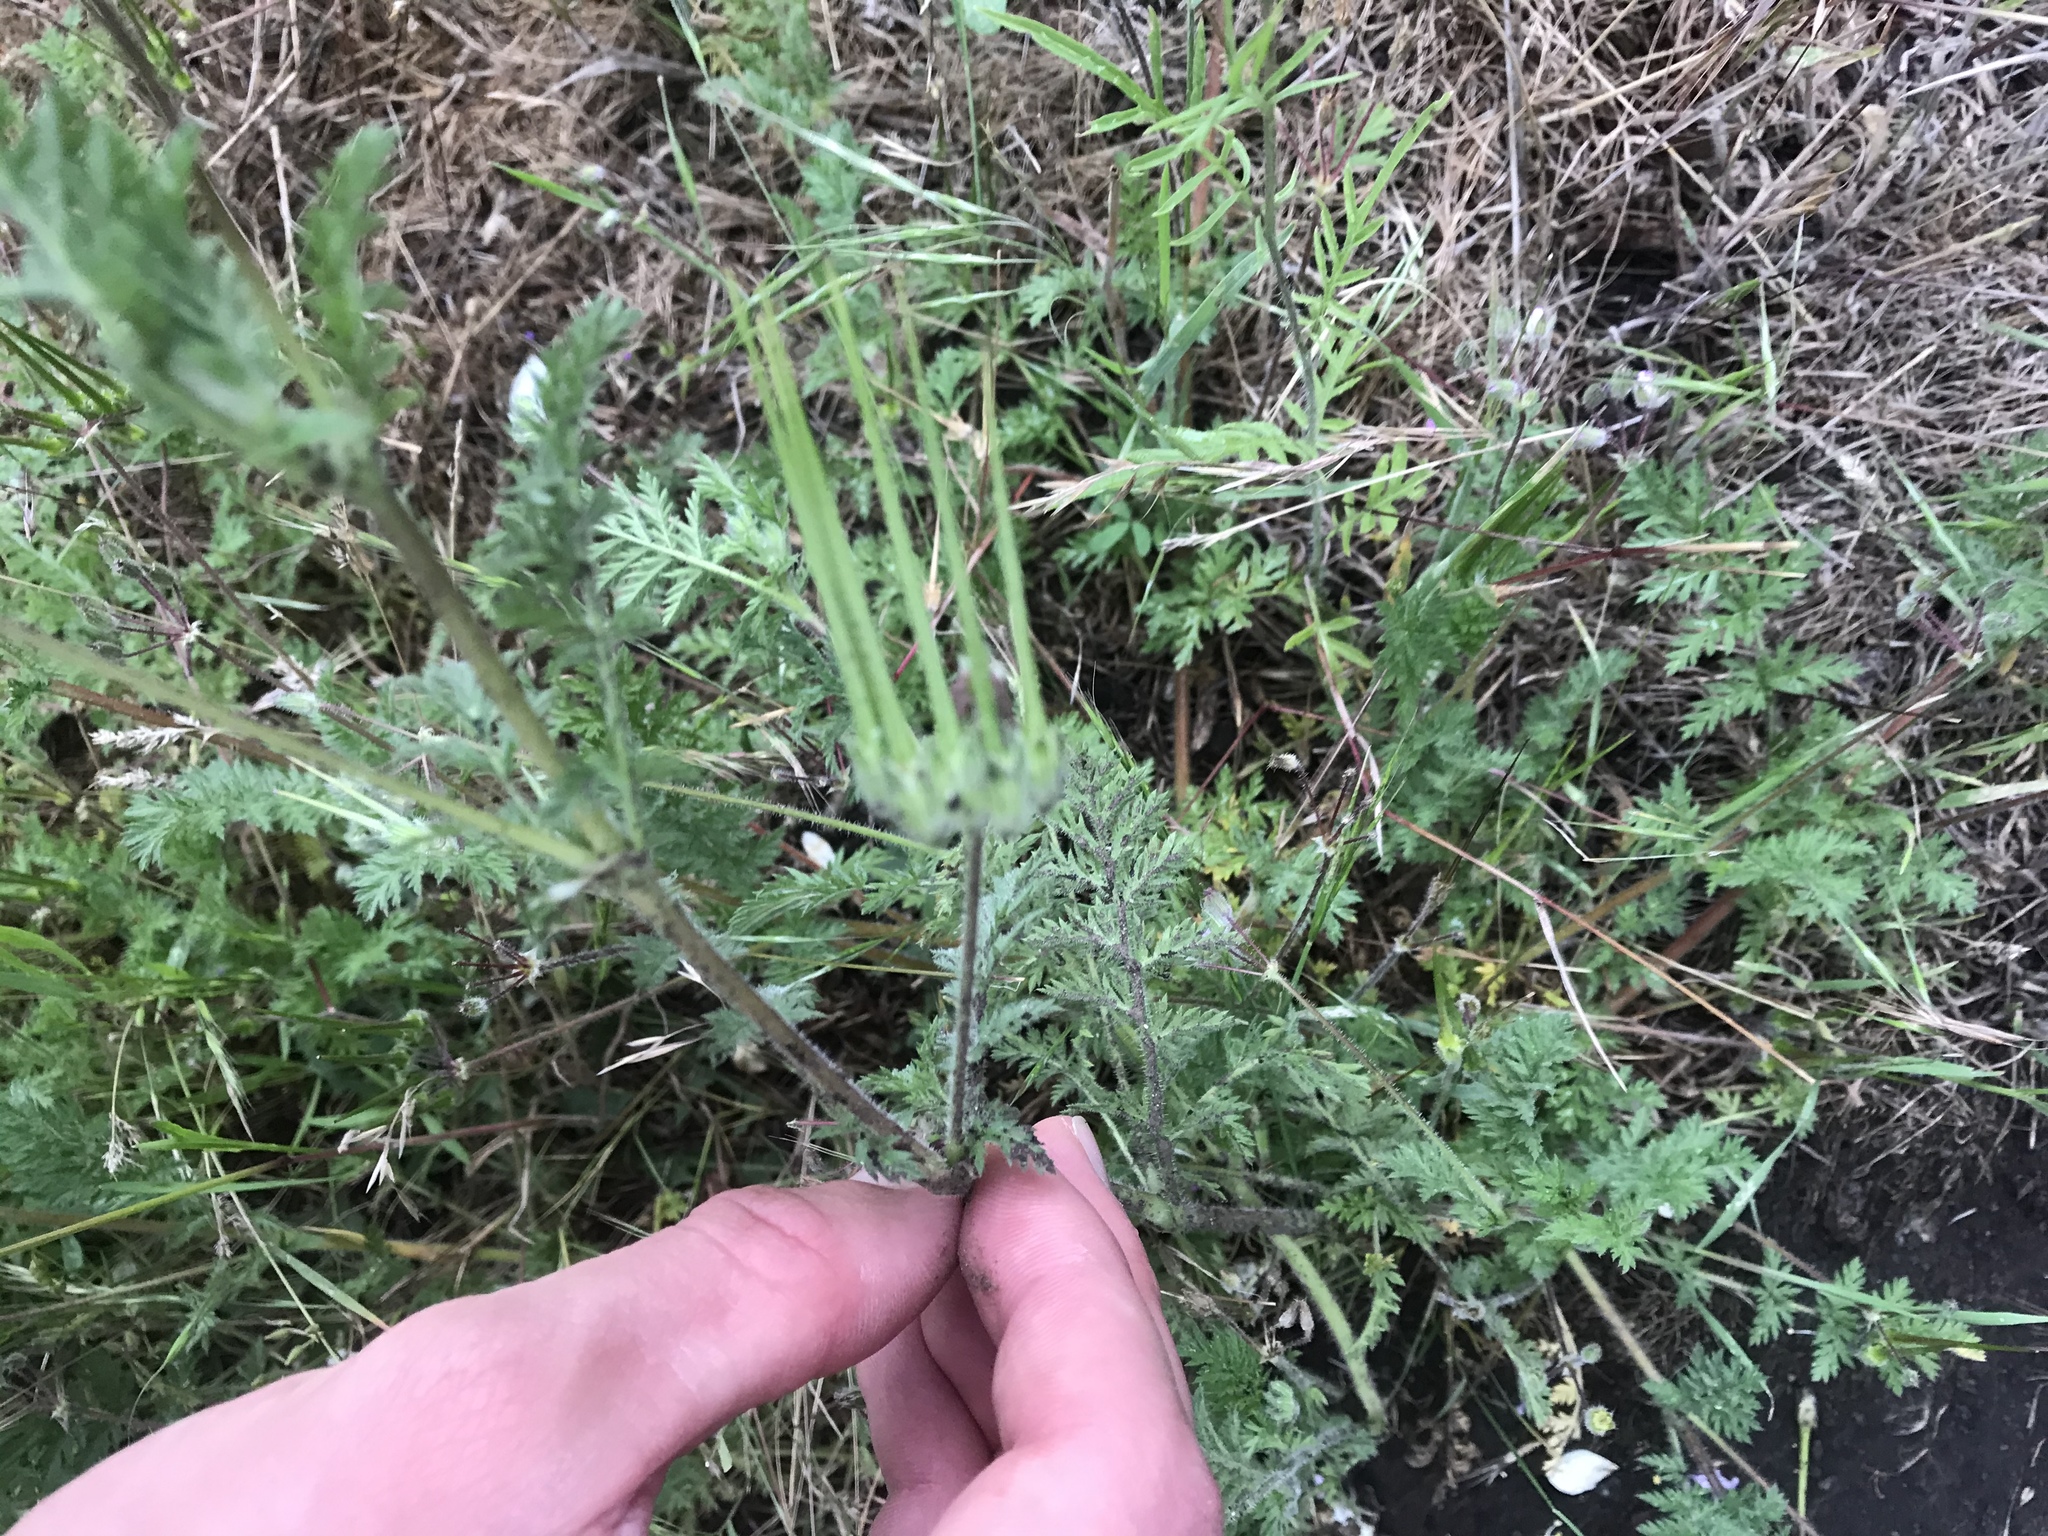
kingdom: Plantae
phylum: Tracheophyta
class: Magnoliopsida
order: Geraniales
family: Geraniaceae
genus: Erodium
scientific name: Erodium cicutarium
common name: Common stork's-bill
